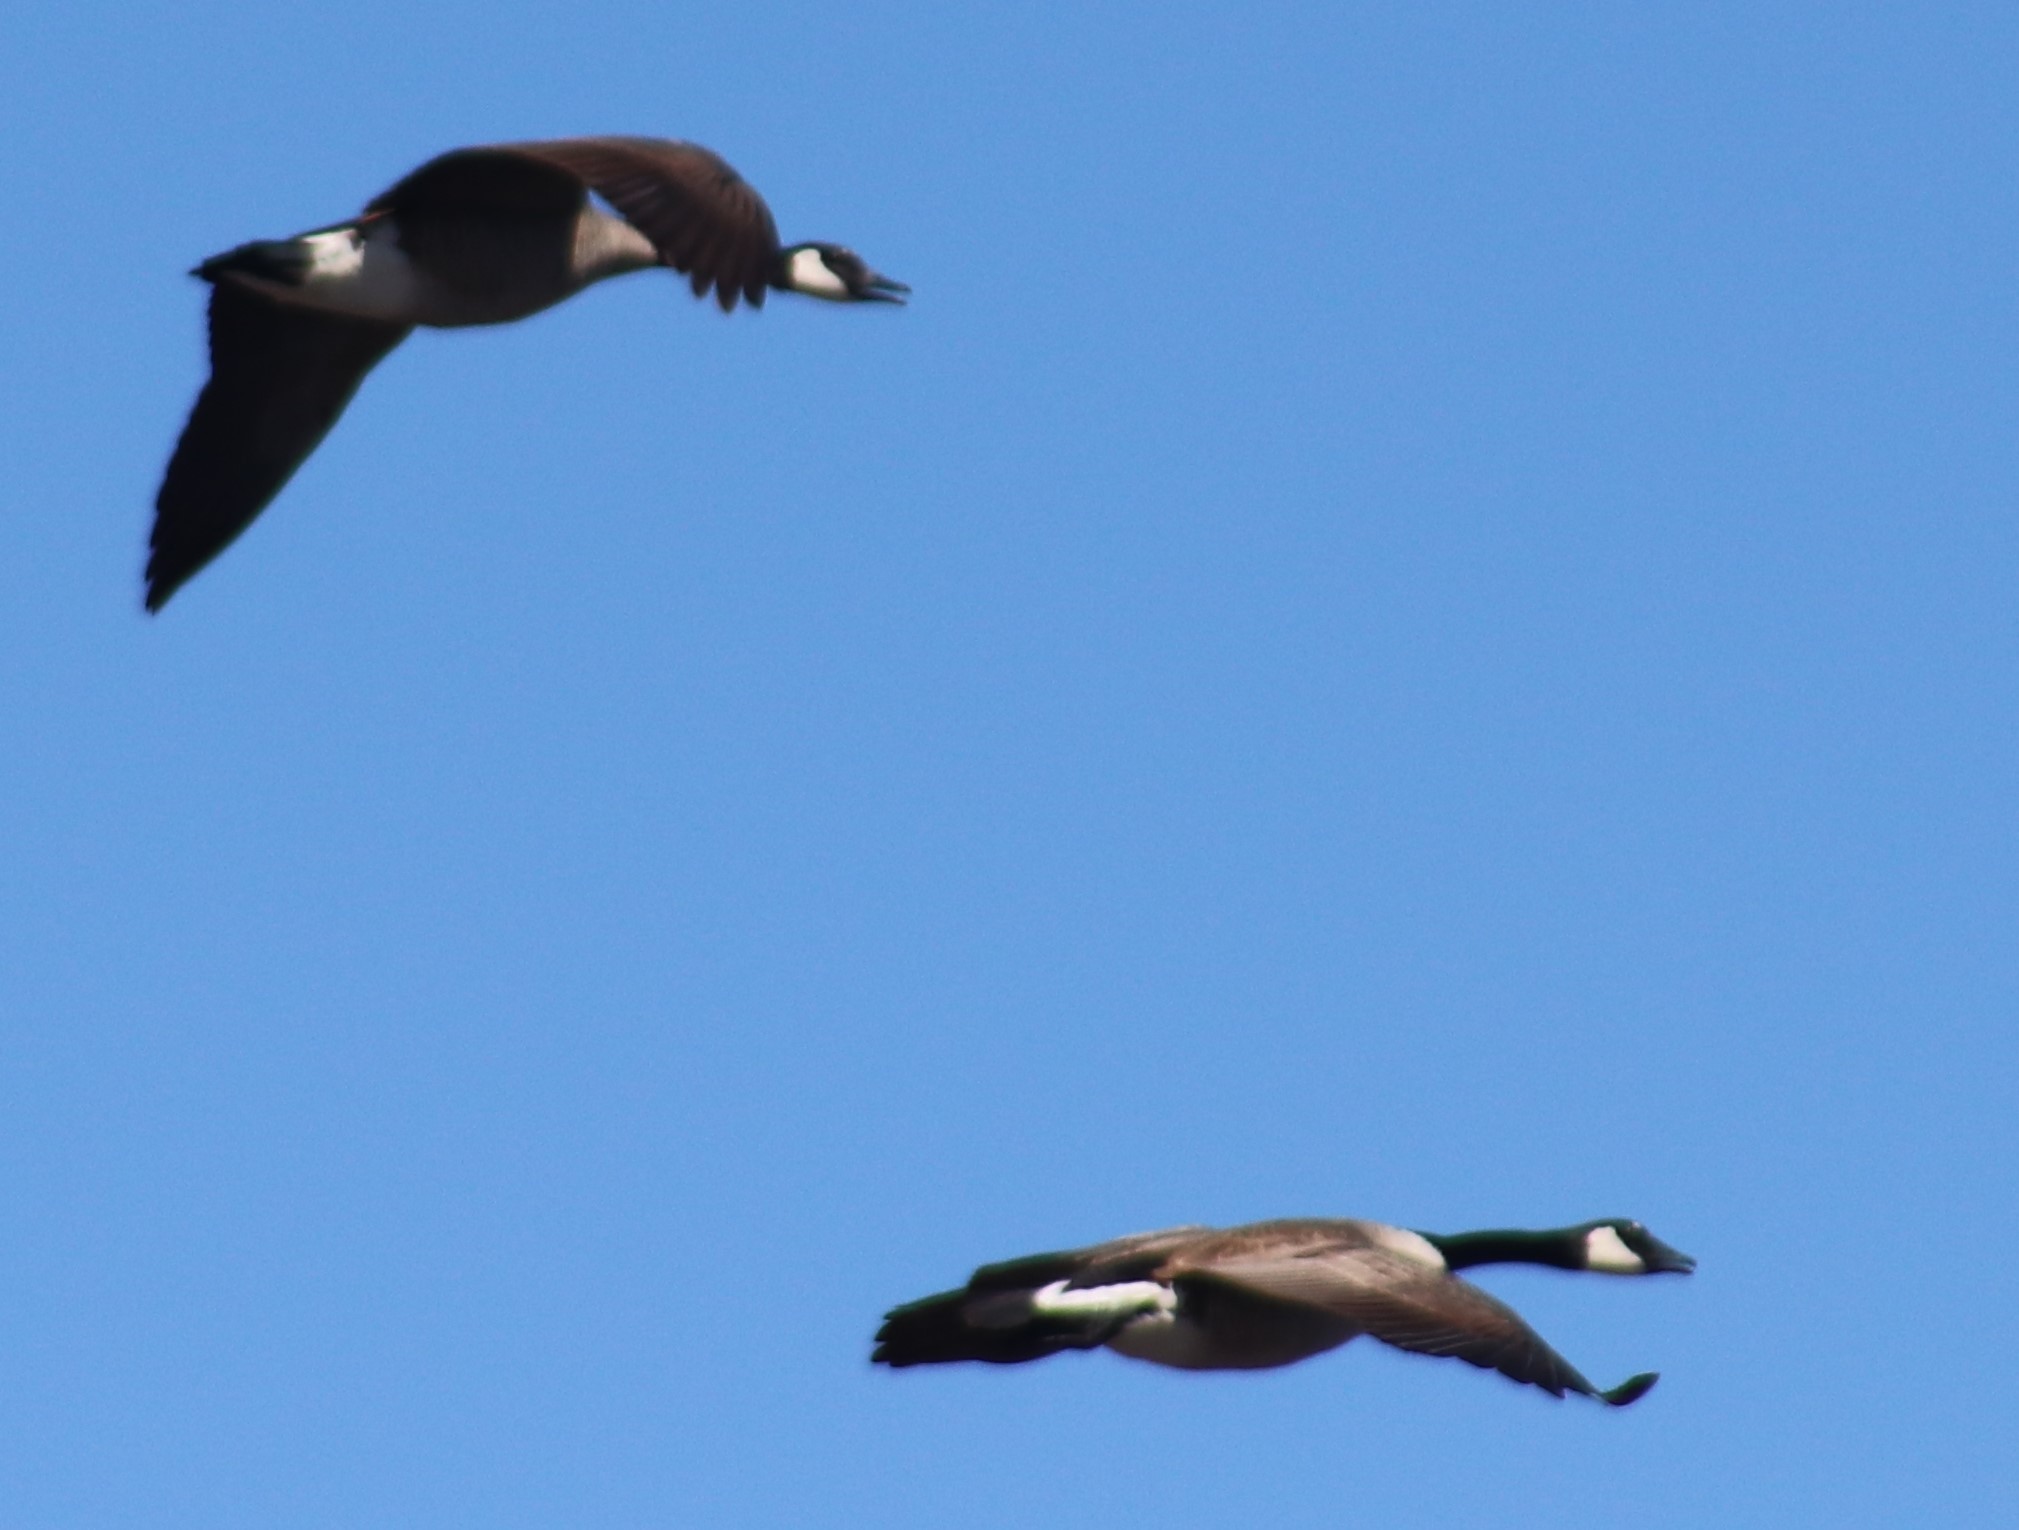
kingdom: Animalia
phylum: Chordata
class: Aves
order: Anseriformes
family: Anatidae
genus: Branta
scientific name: Branta canadensis
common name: Canada goose
